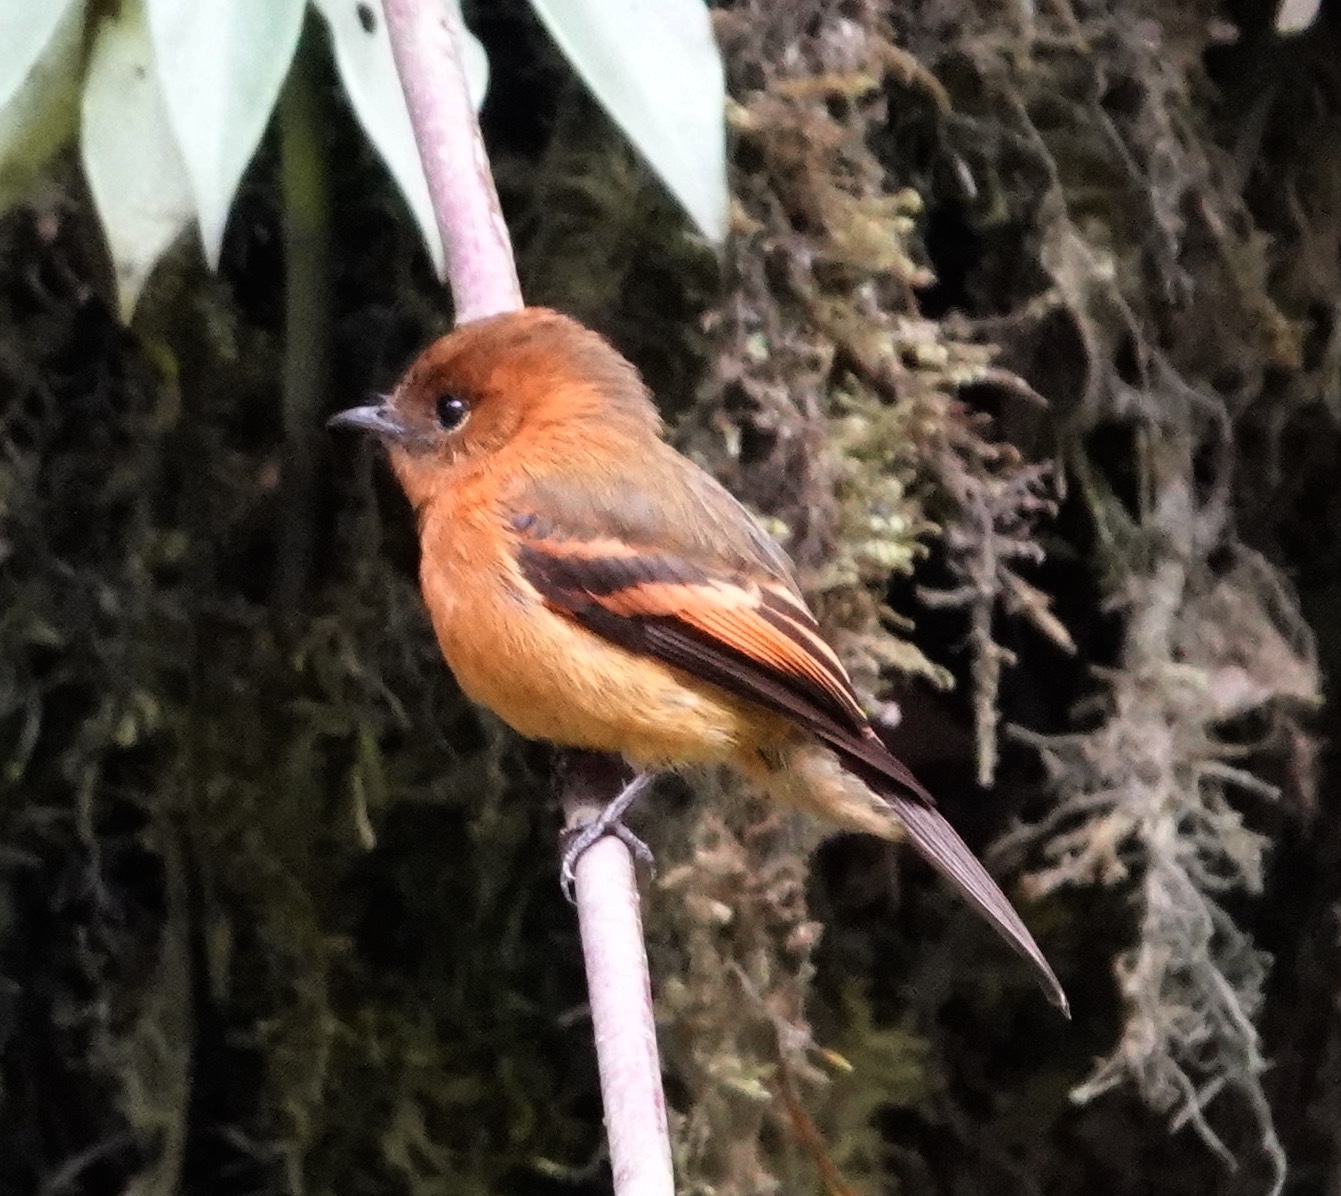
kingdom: Animalia
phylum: Chordata
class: Aves
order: Passeriformes
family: Tyrannidae
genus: Pyrrhomyias
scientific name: Pyrrhomyias cinnamomeus
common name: Cinnamon flycatcher
